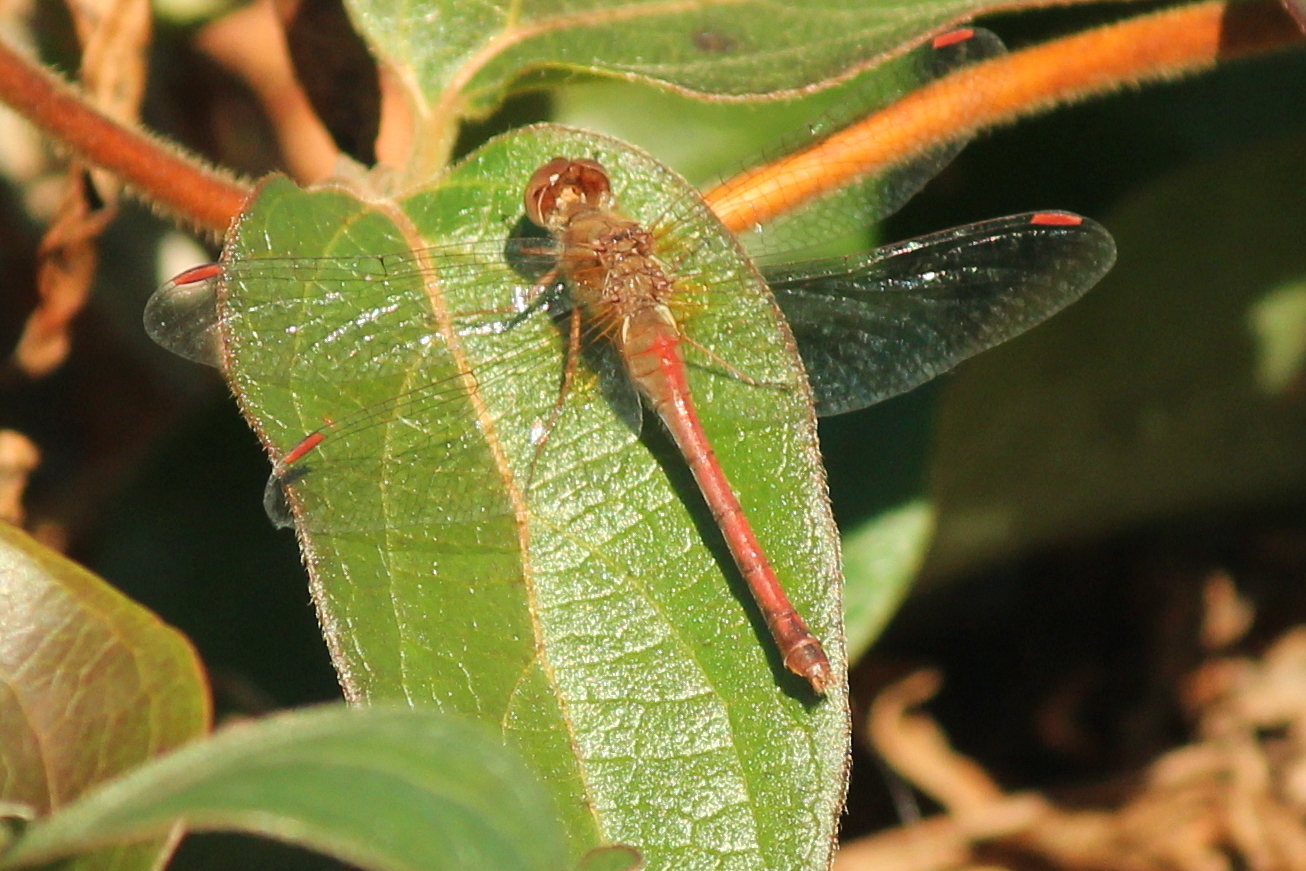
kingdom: Animalia
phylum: Arthropoda
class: Insecta
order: Odonata
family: Libellulidae
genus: Sympetrum
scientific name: Sympetrum vicinum
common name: Autumn meadowhawk
